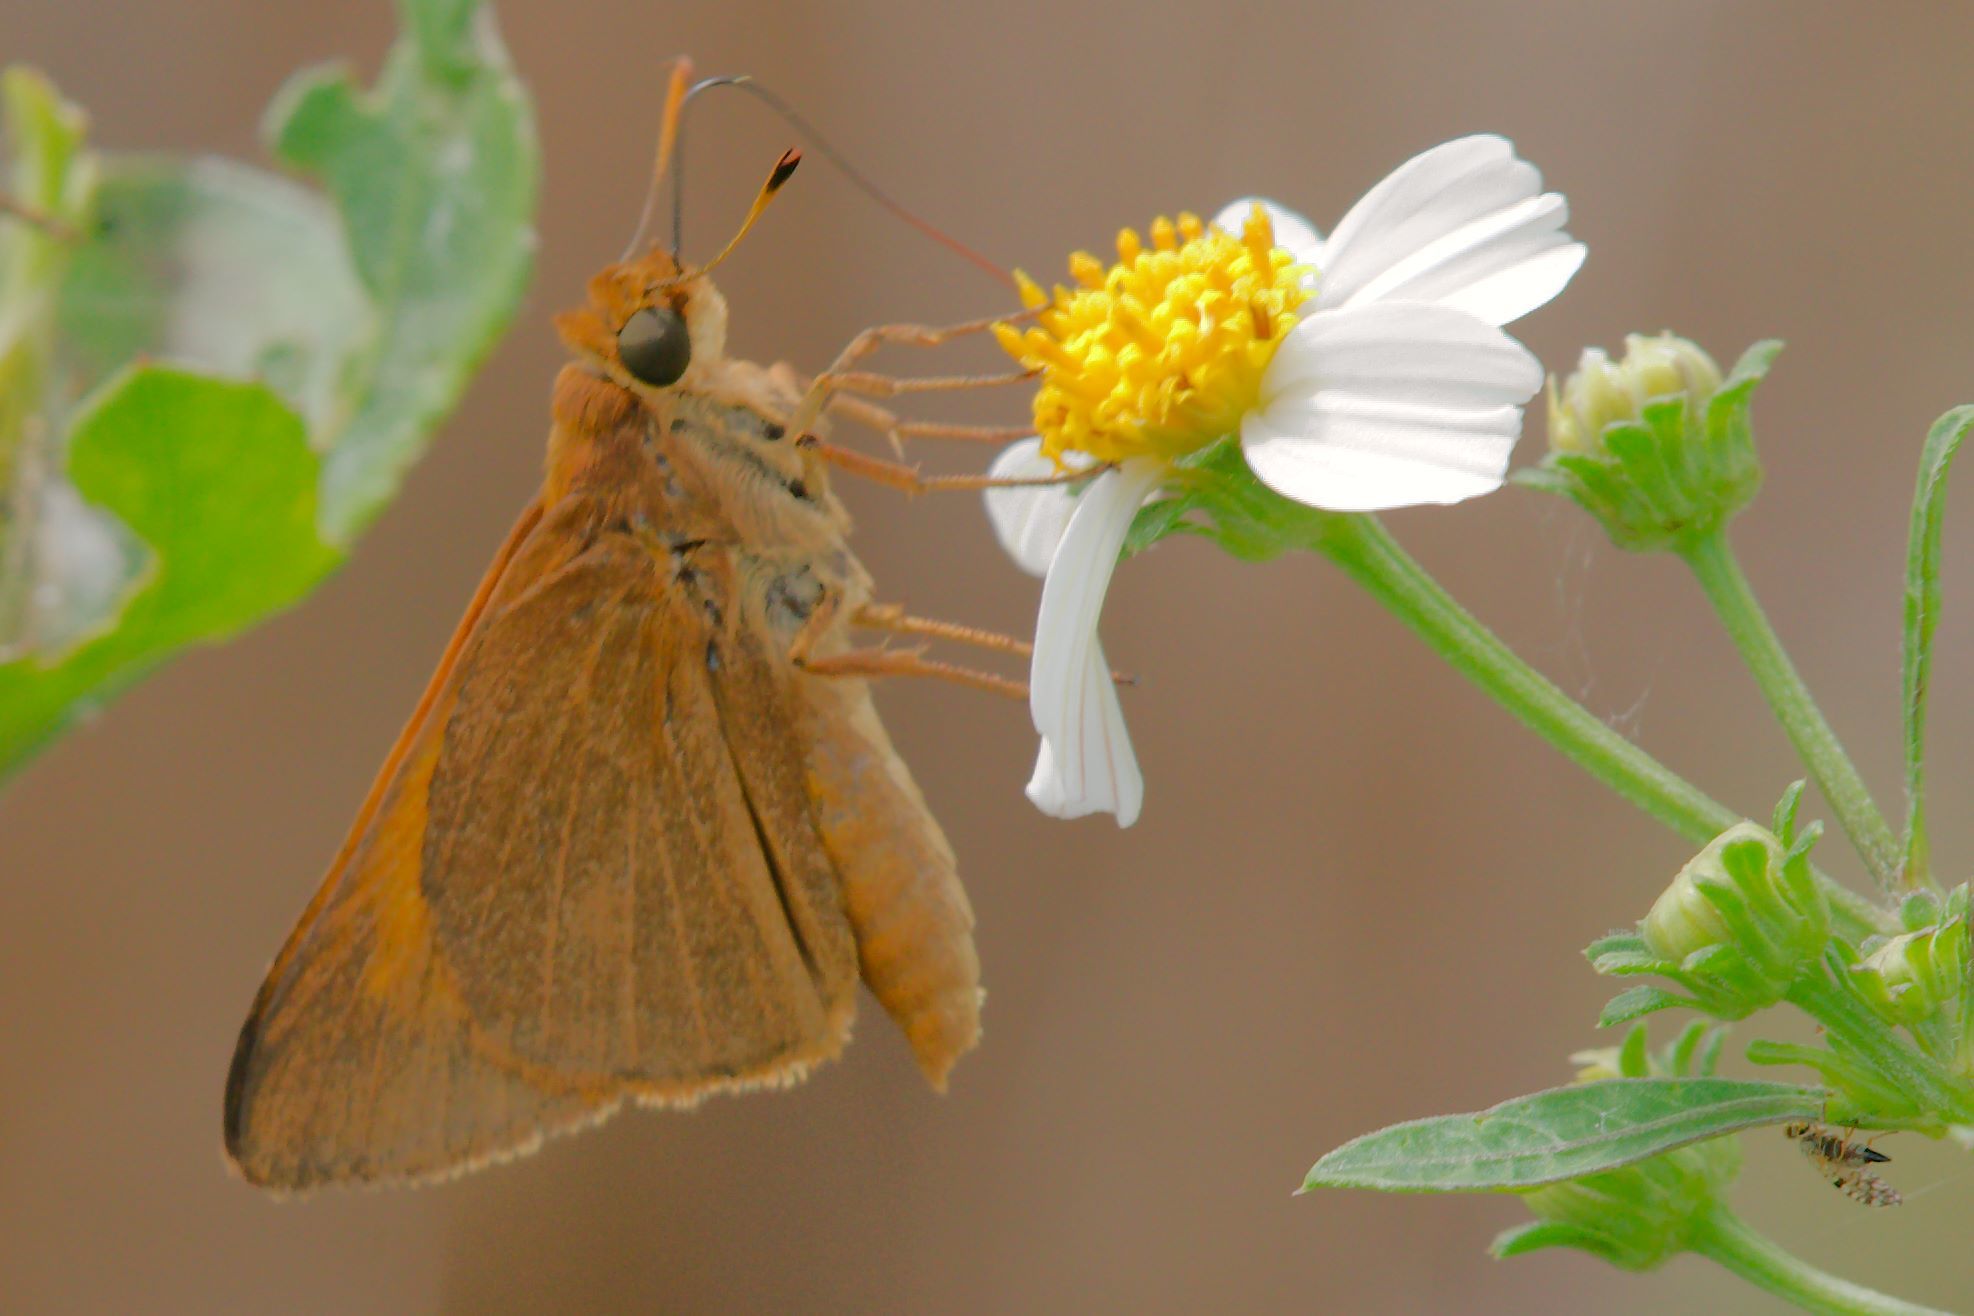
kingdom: Animalia
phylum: Arthropoda
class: Insecta
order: Lepidoptera
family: Hesperiidae
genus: Euphyes
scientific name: Euphyes pilatka
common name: Palatka skipper
